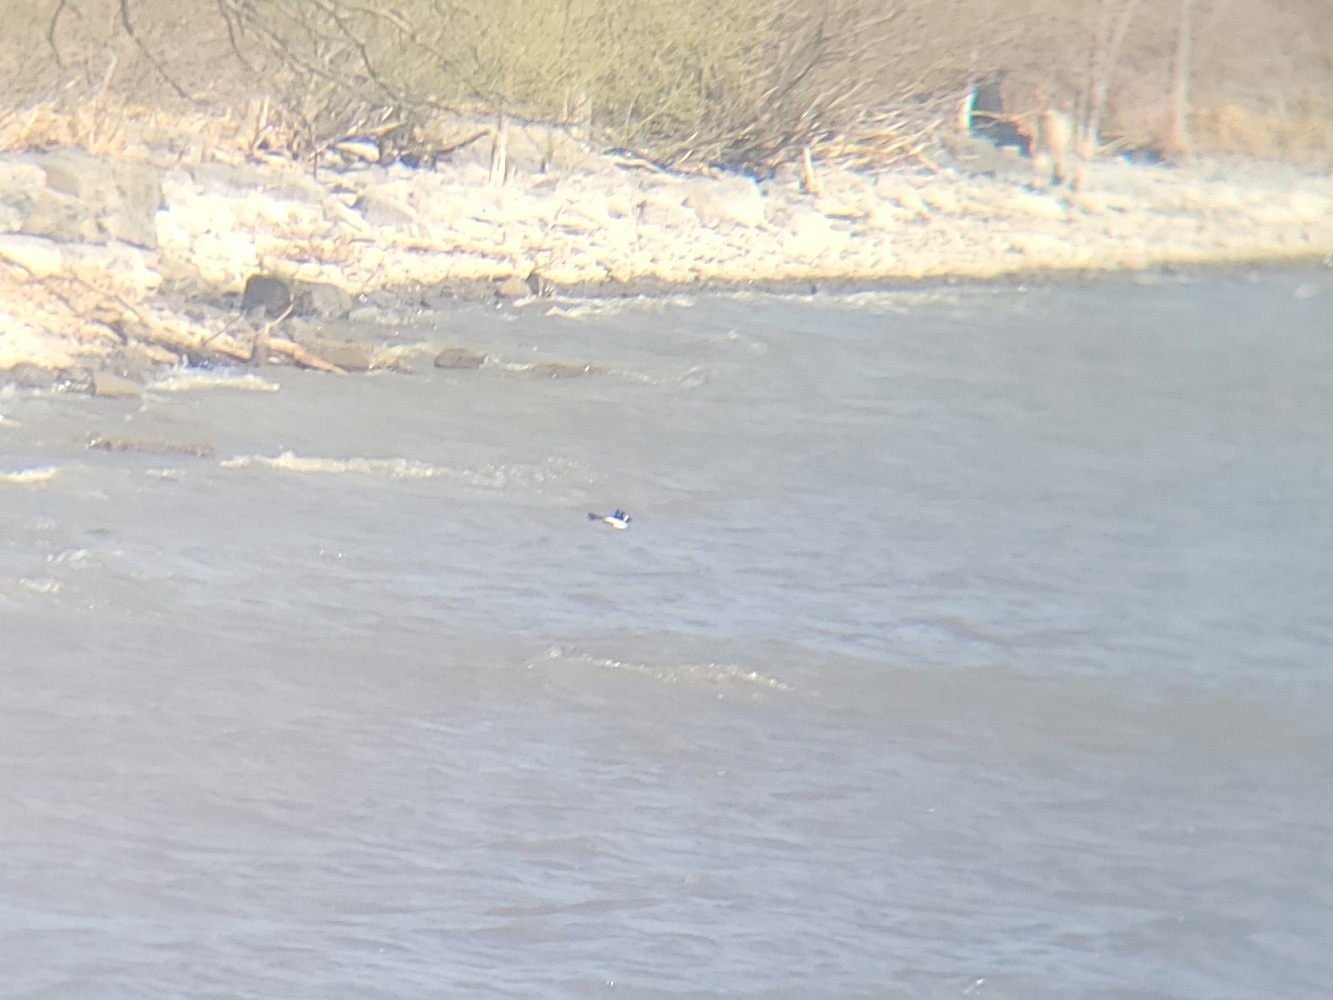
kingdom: Animalia
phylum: Chordata
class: Aves
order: Anseriformes
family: Anatidae
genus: Bucephala
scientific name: Bucephala clangula
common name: Common goldeneye
